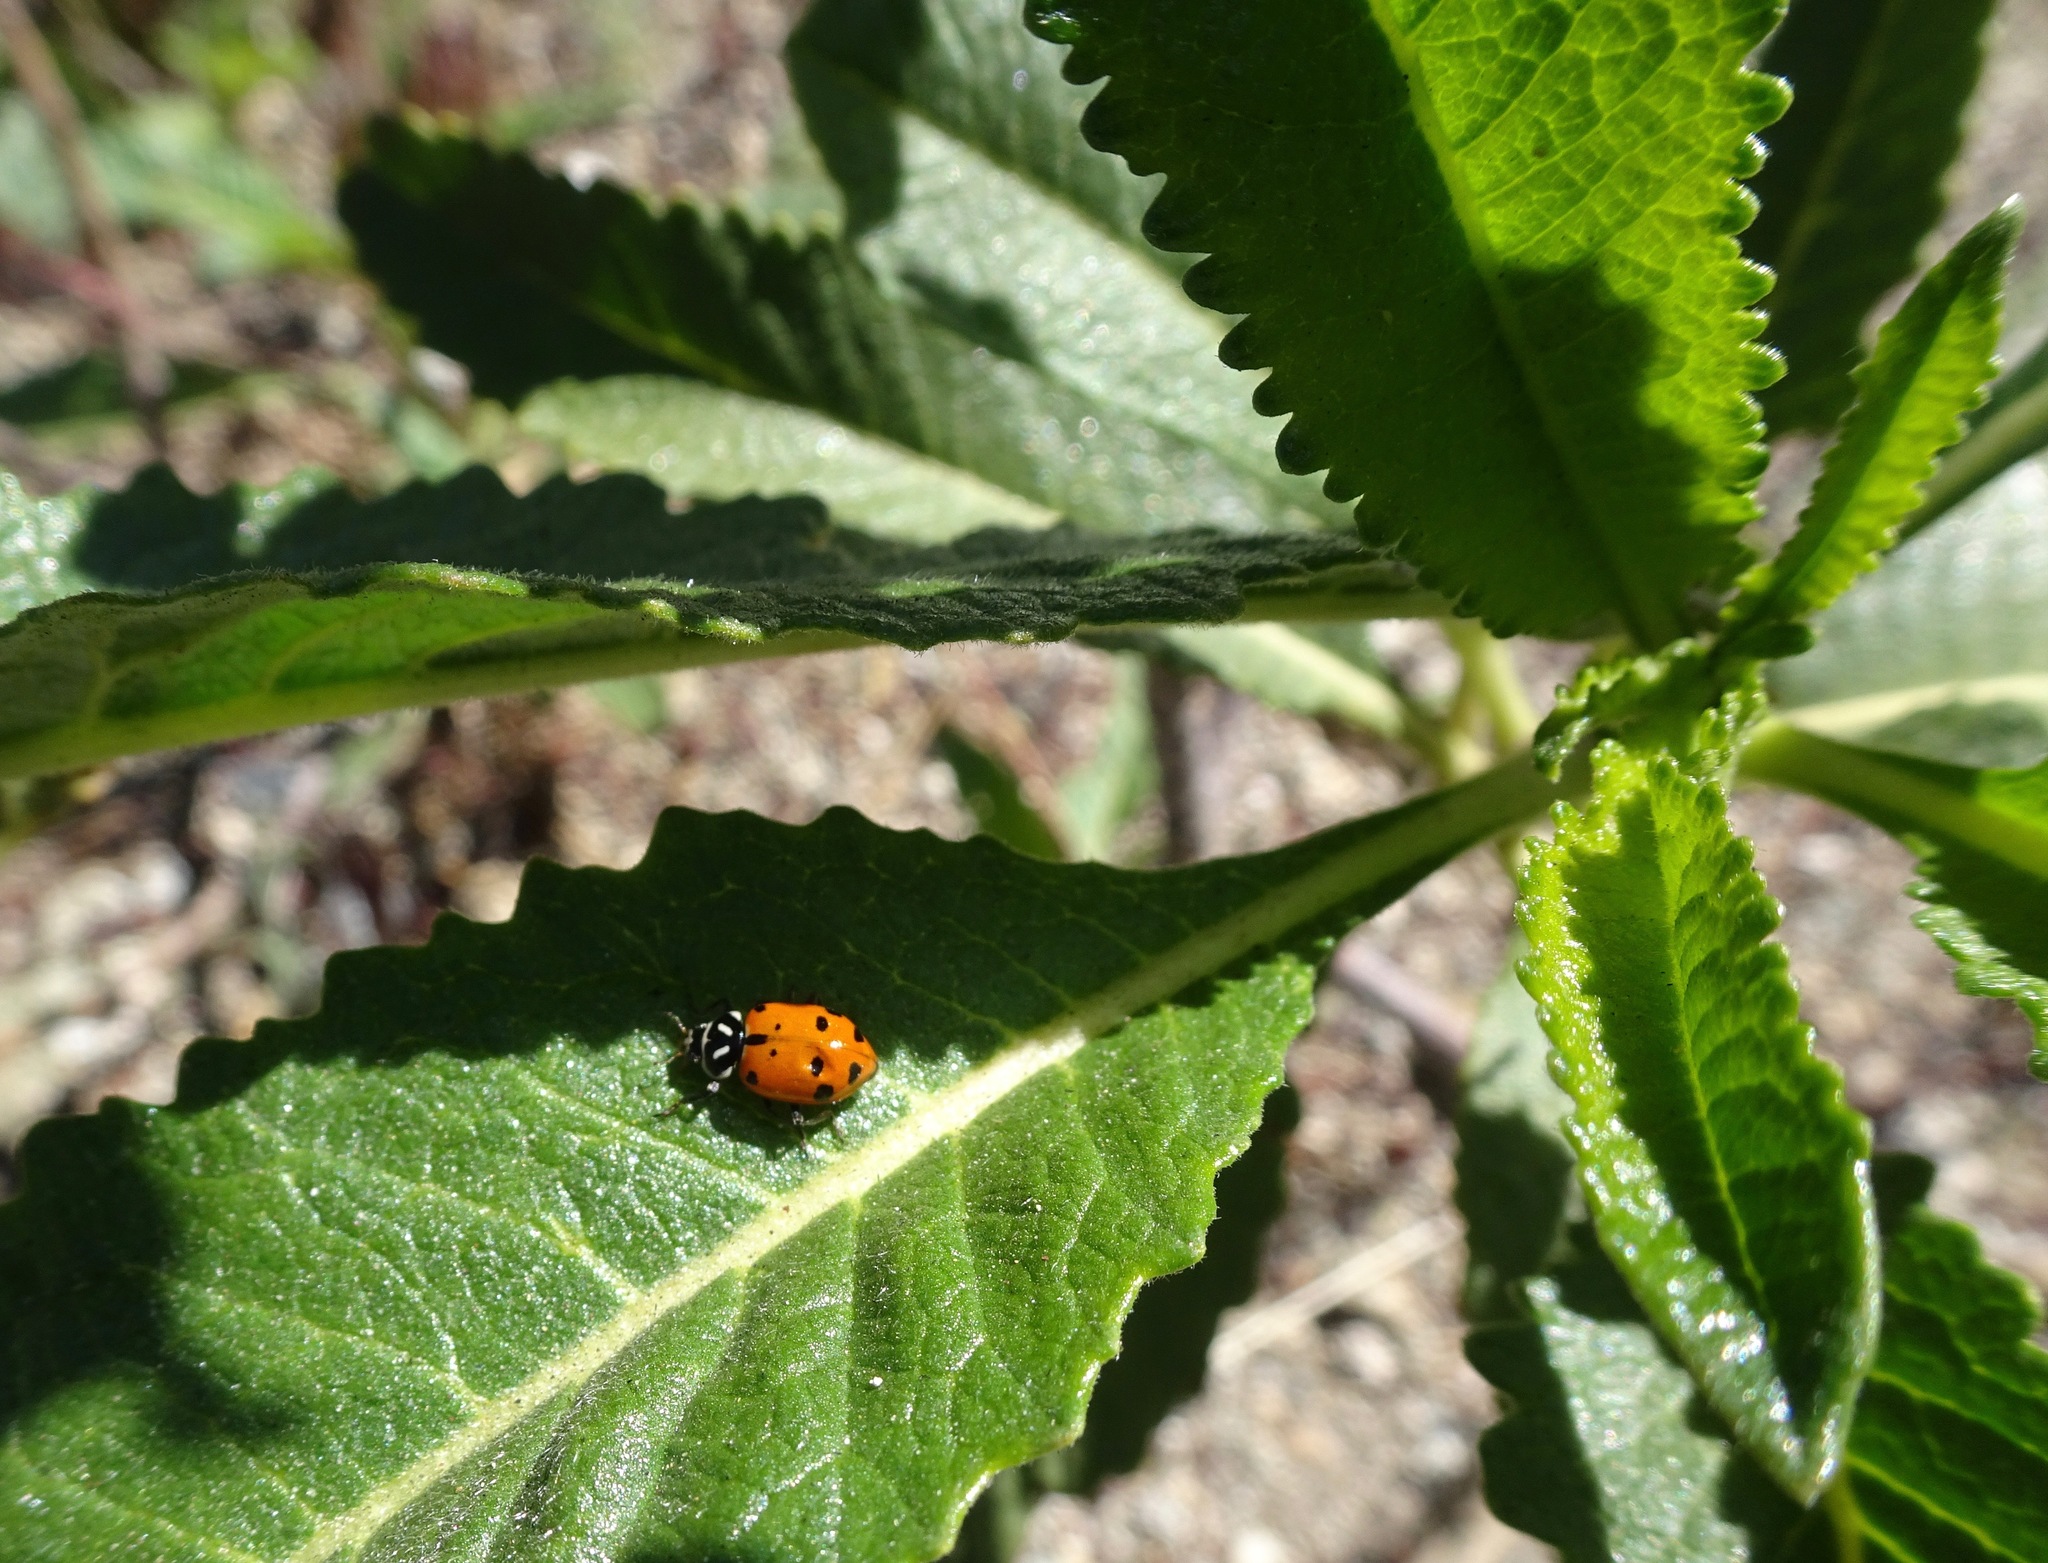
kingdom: Animalia
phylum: Arthropoda
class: Insecta
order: Coleoptera
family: Coccinellidae
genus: Hippodamia
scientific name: Hippodamia convergens
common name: Convergent lady beetle
